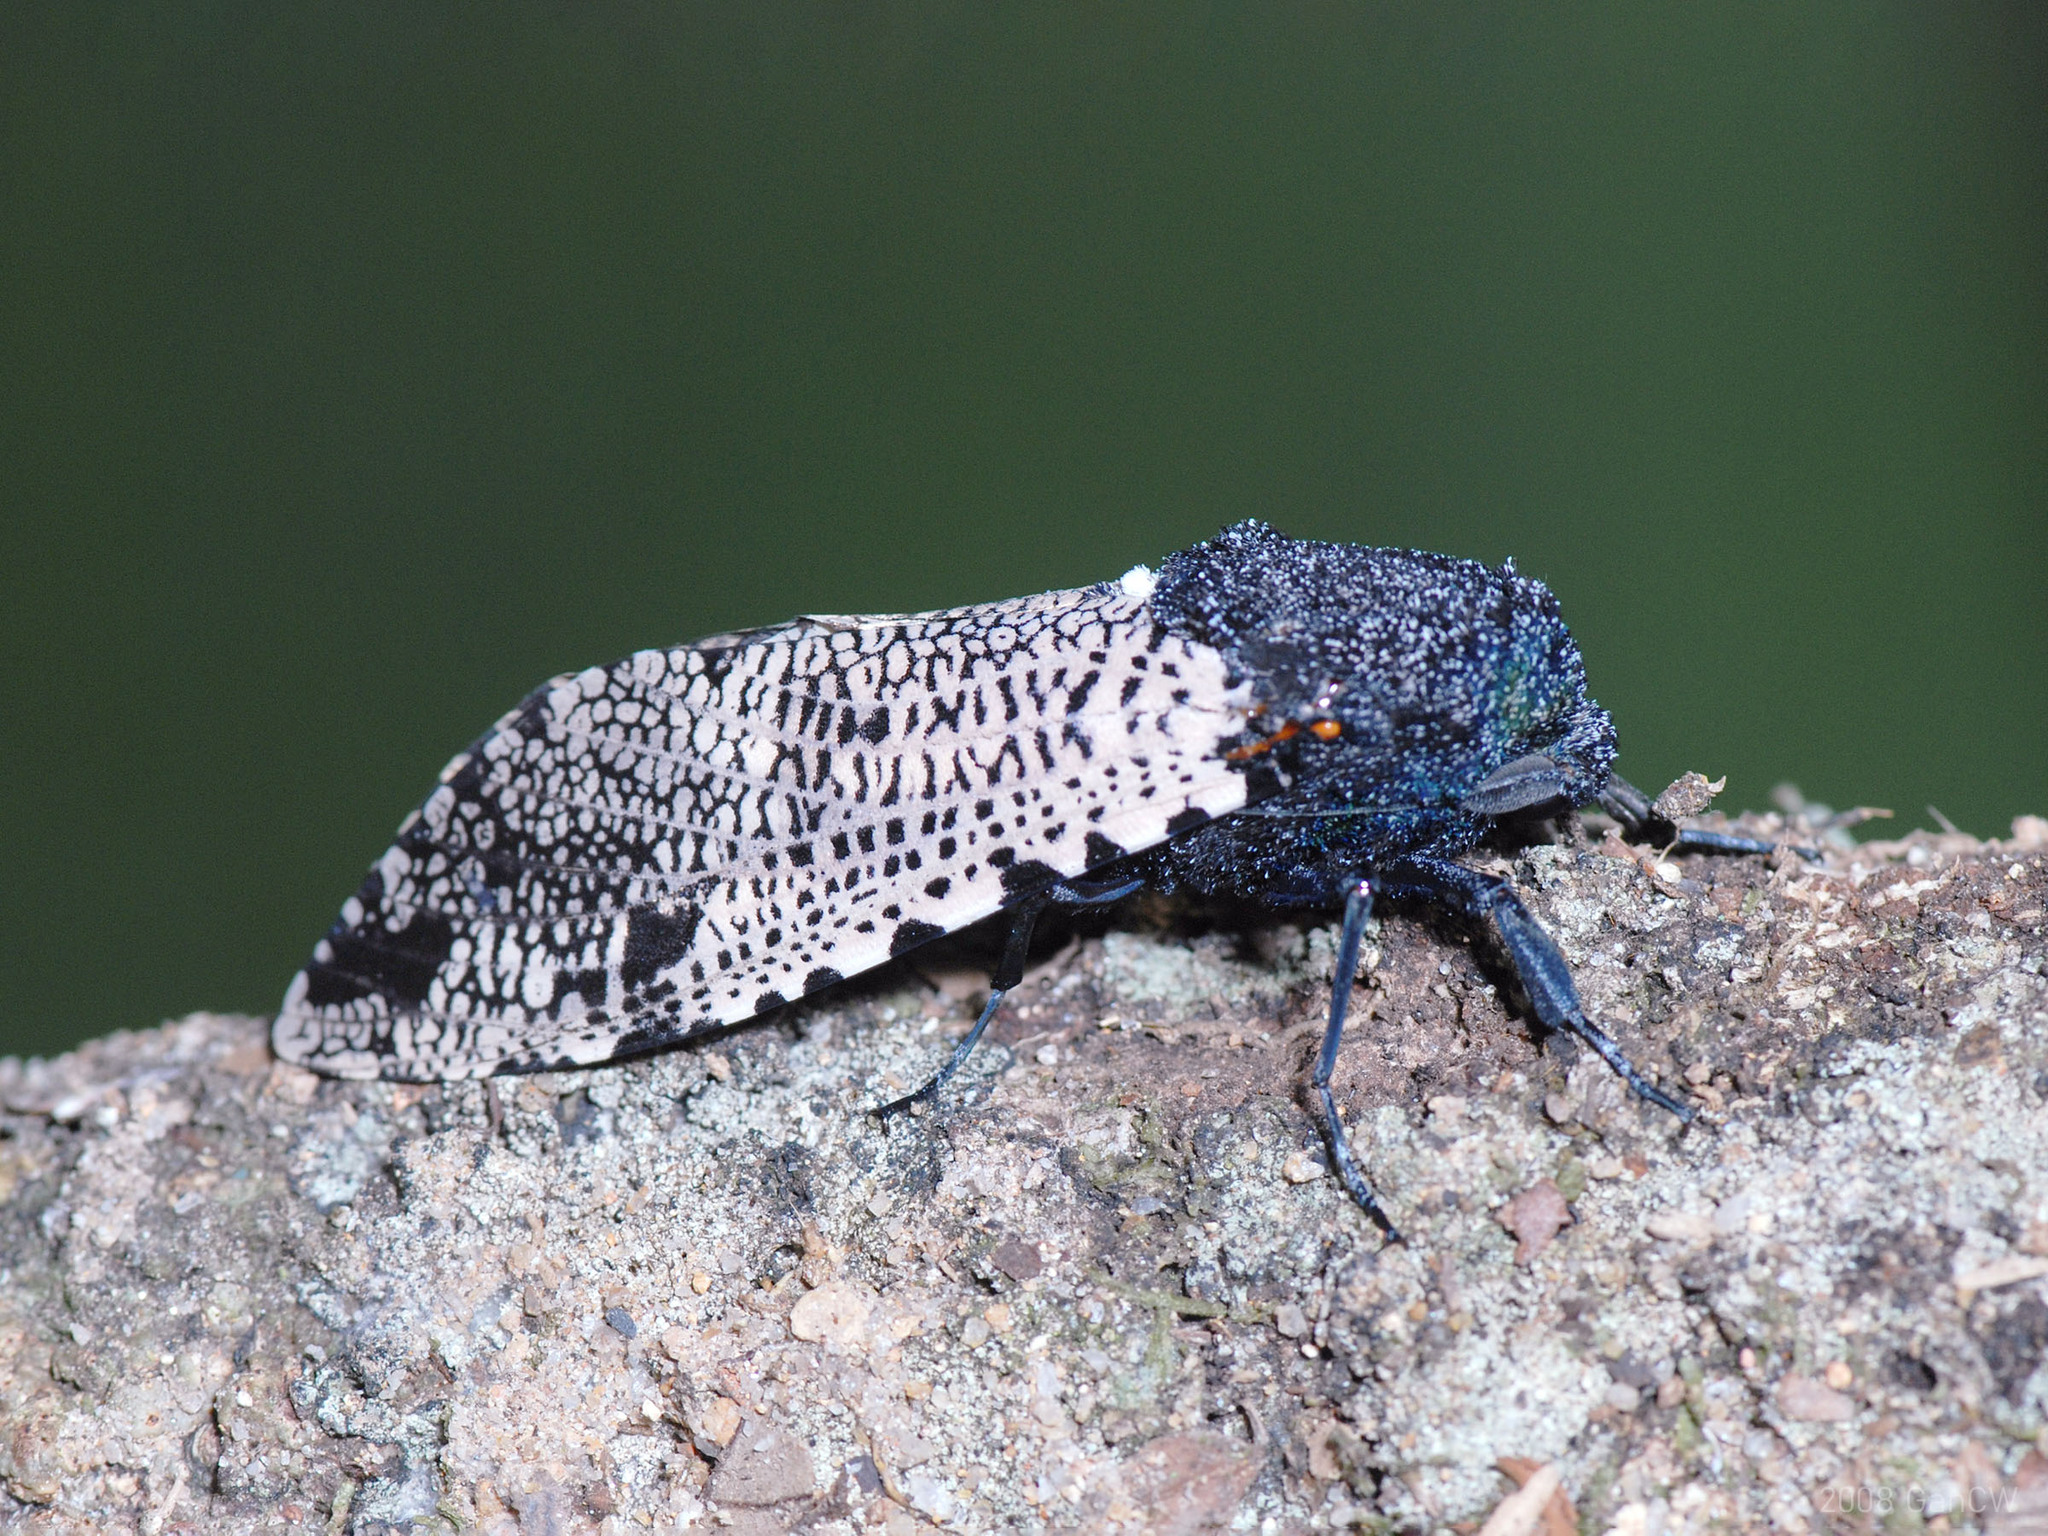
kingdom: Animalia
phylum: Arthropoda
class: Insecta
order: Lepidoptera
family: Cossidae
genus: Xyleutes
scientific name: Xyleutes strix
